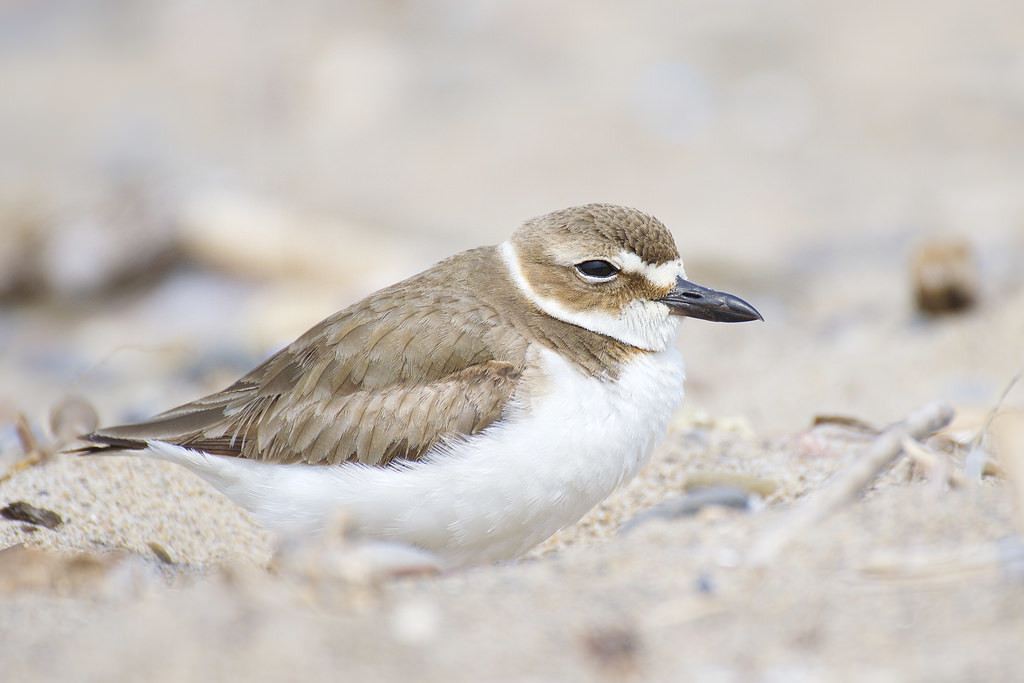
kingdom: Animalia
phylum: Chordata
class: Aves
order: Charadriiformes
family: Charadriidae
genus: Anarhynchus
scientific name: Anarhynchus
